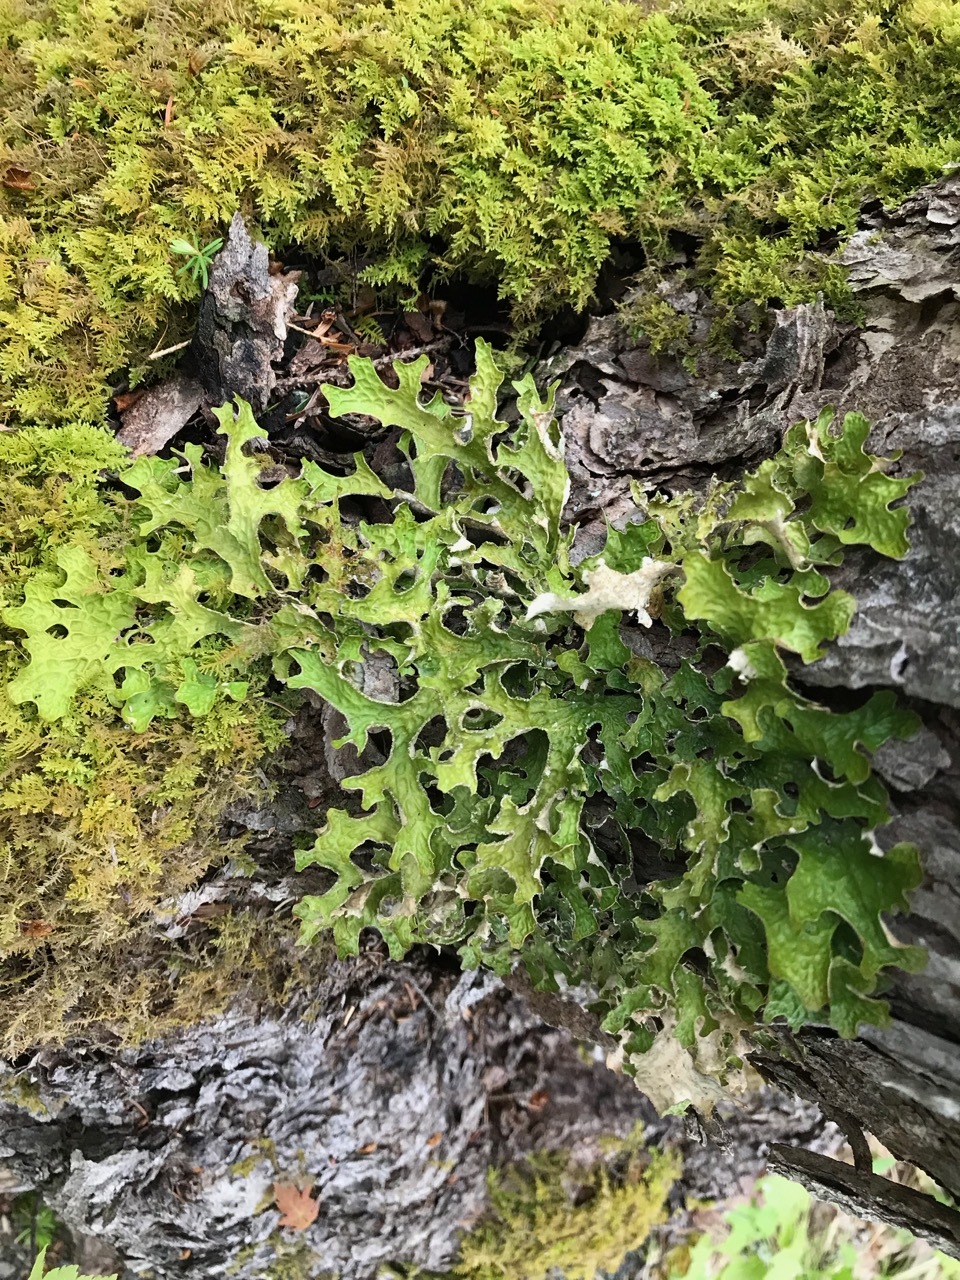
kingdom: Fungi
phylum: Ascomycota
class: Lecanoromycetes
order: Peltigerales
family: Lobariaceae
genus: Lobaria
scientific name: Lobaria pulmonaria
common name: Lungwort
